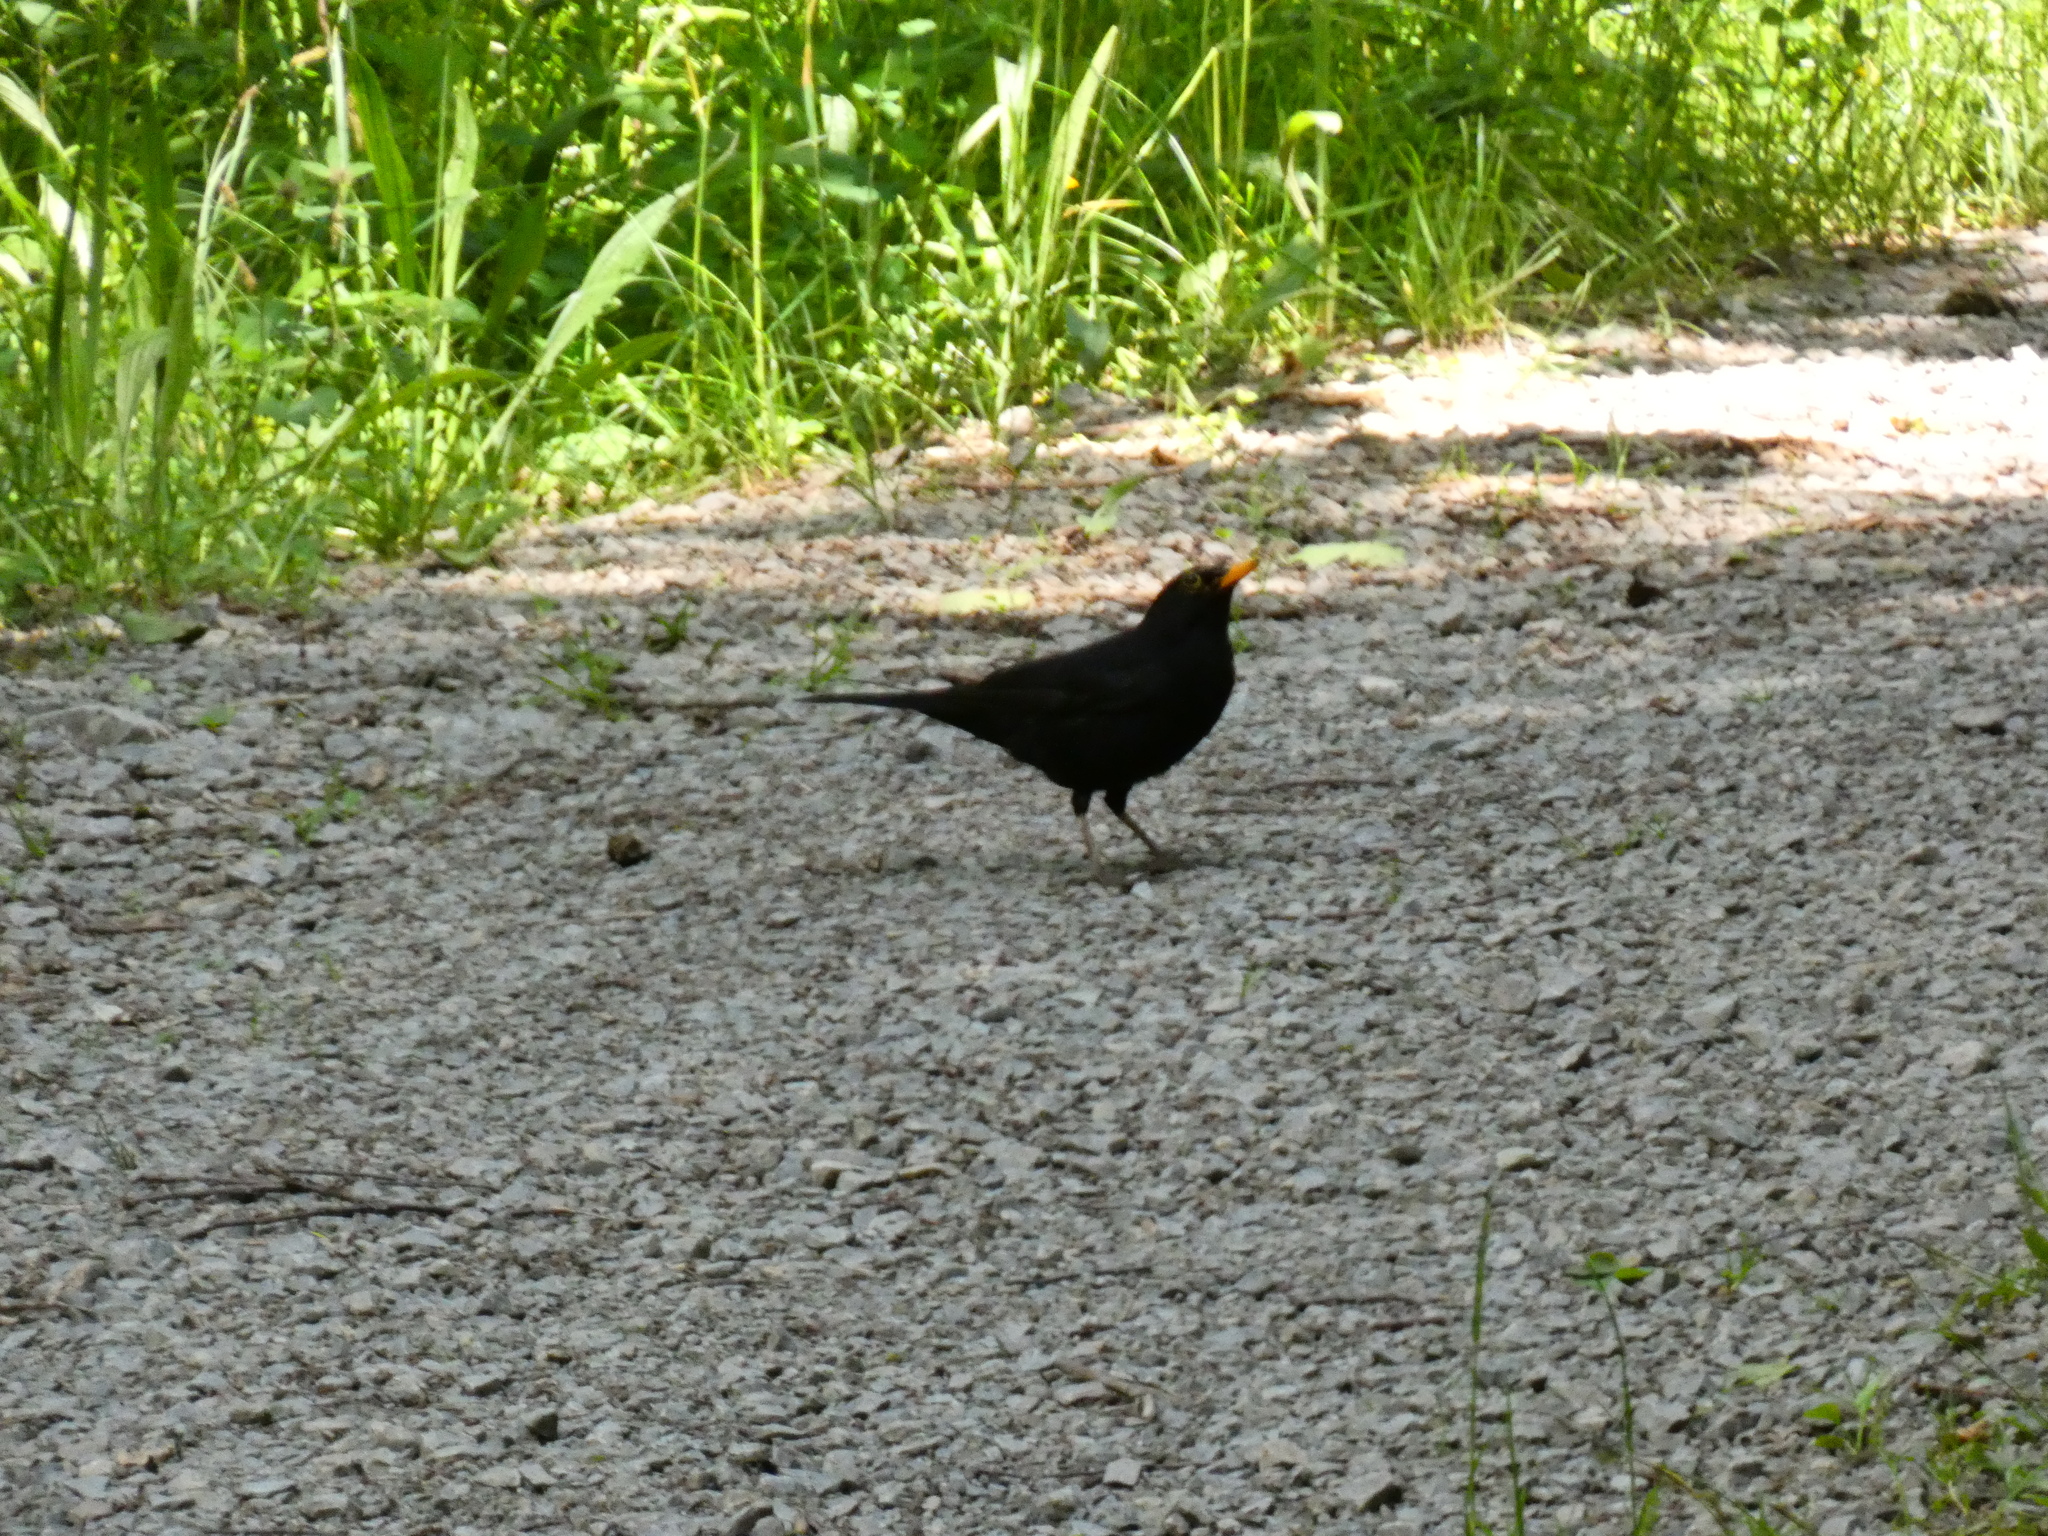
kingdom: Animalia
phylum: Chordata
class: Aves
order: Passeriformes
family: Turdidae
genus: Turdus
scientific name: Turdus merula
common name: Common blackbird
